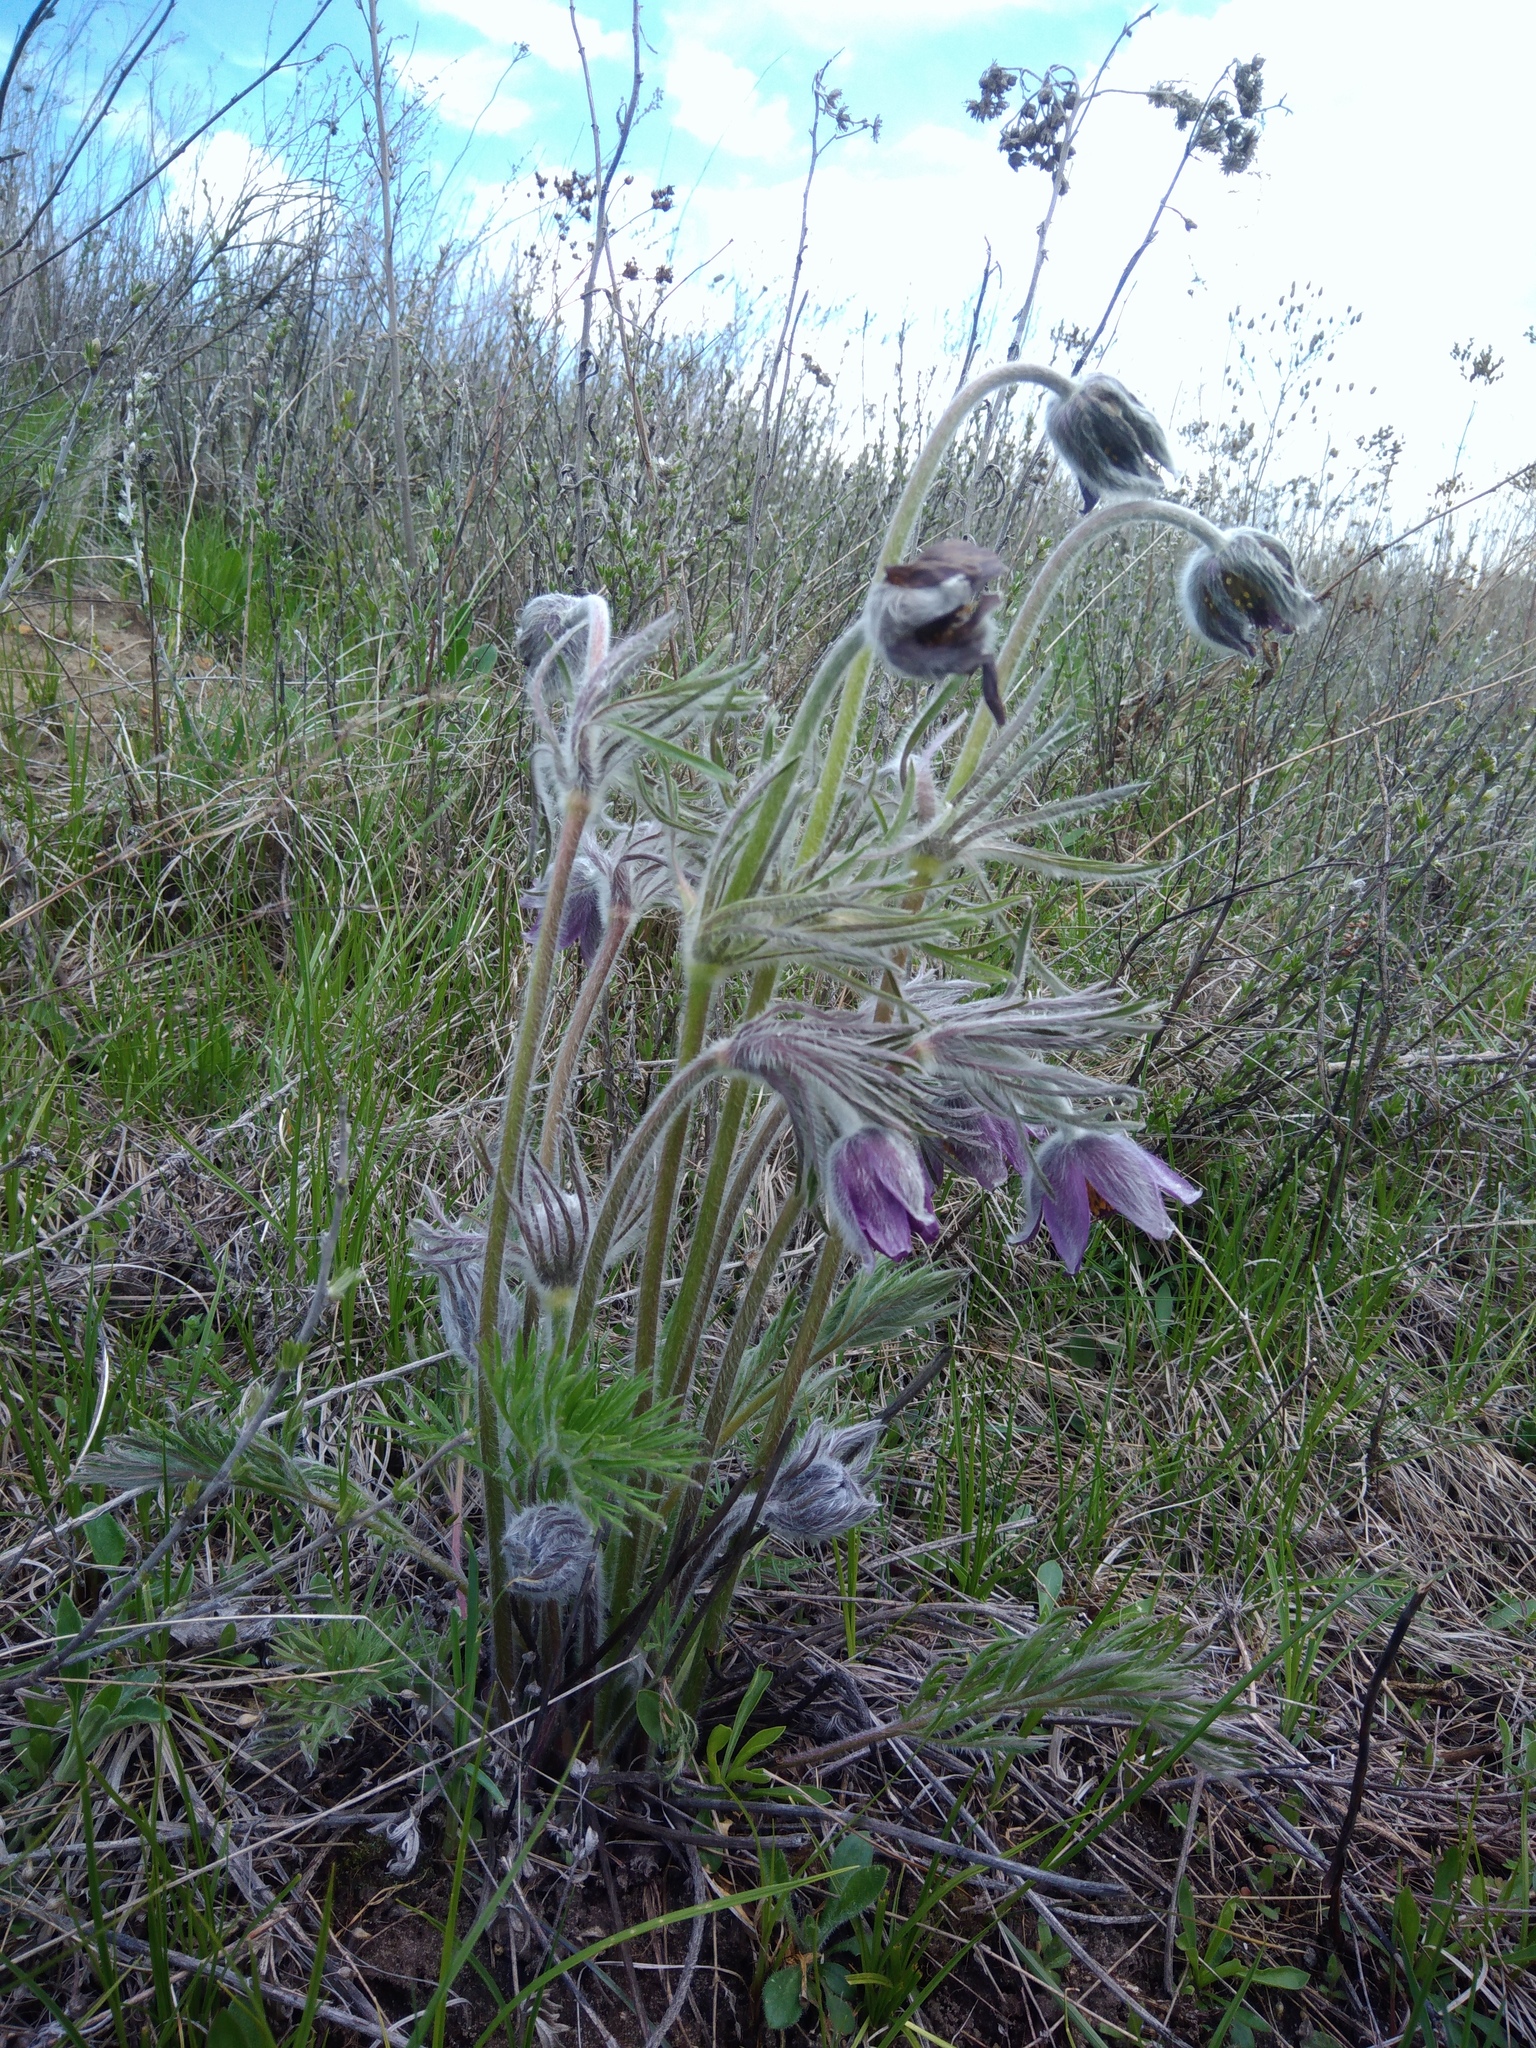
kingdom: Plantae
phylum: Tracheophyta
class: Magnoliopsida
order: Ranunculales
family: Ranunculaceae
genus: Pulsatilla
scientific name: Pulsatilla pratensis
